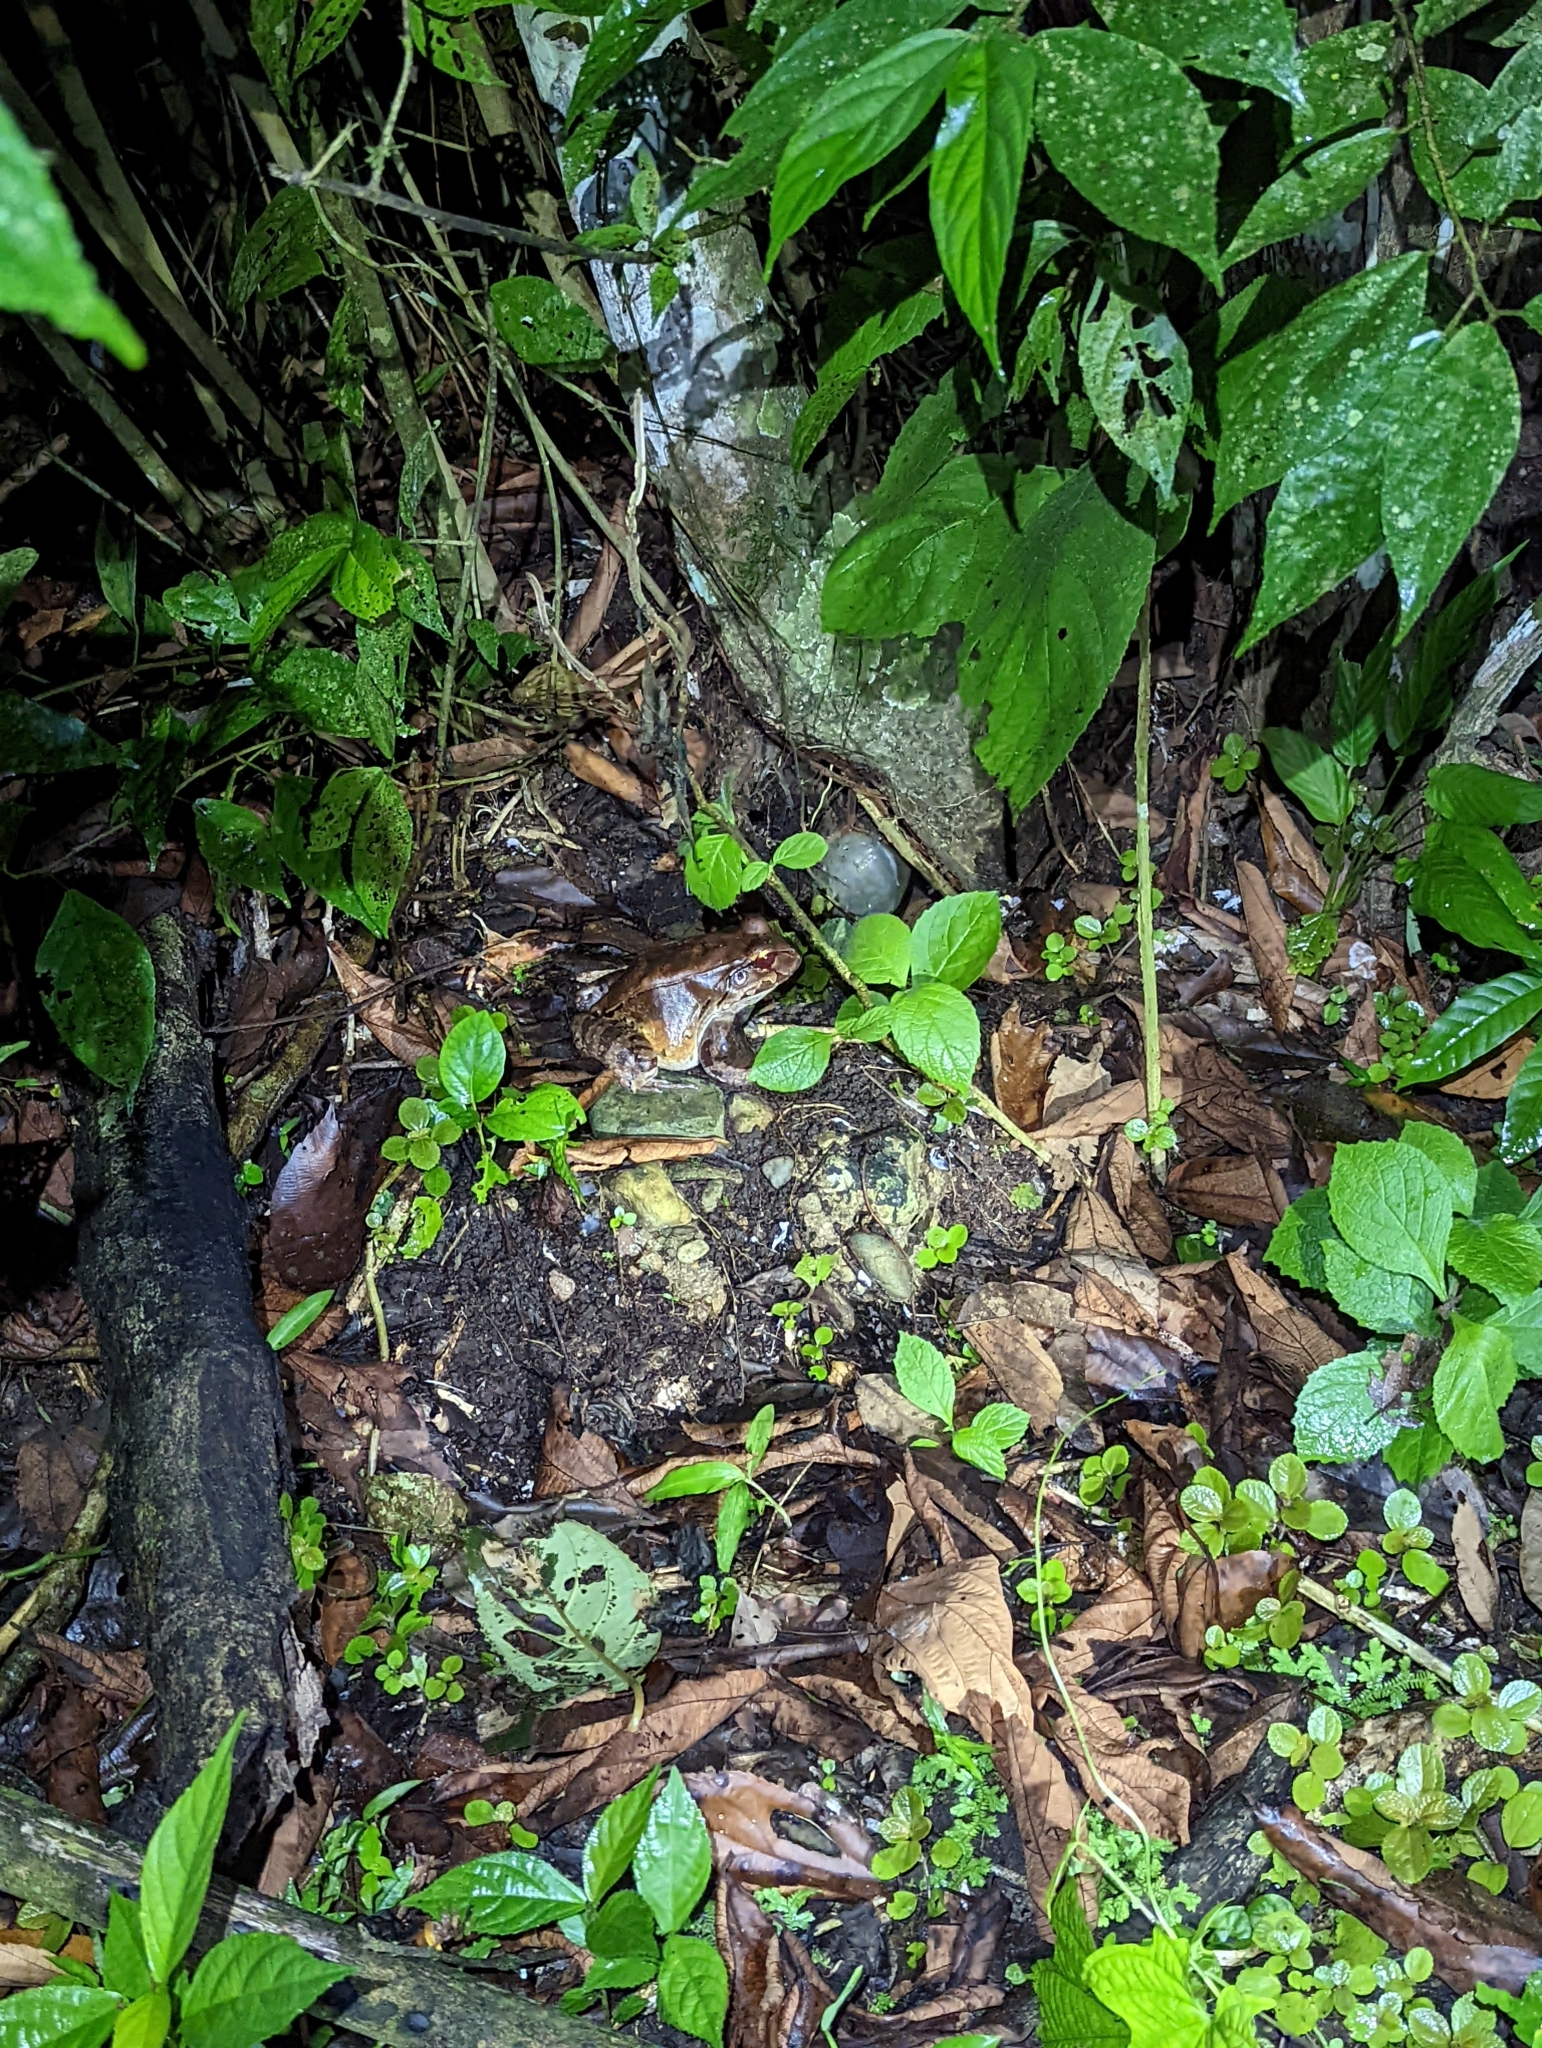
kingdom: Animalia
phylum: Chordata
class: Amphibia
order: Anura
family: Leptodactylidae
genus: Leptodactylus
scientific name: Leptodactylus savagei
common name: Savage's thin-toed frog
